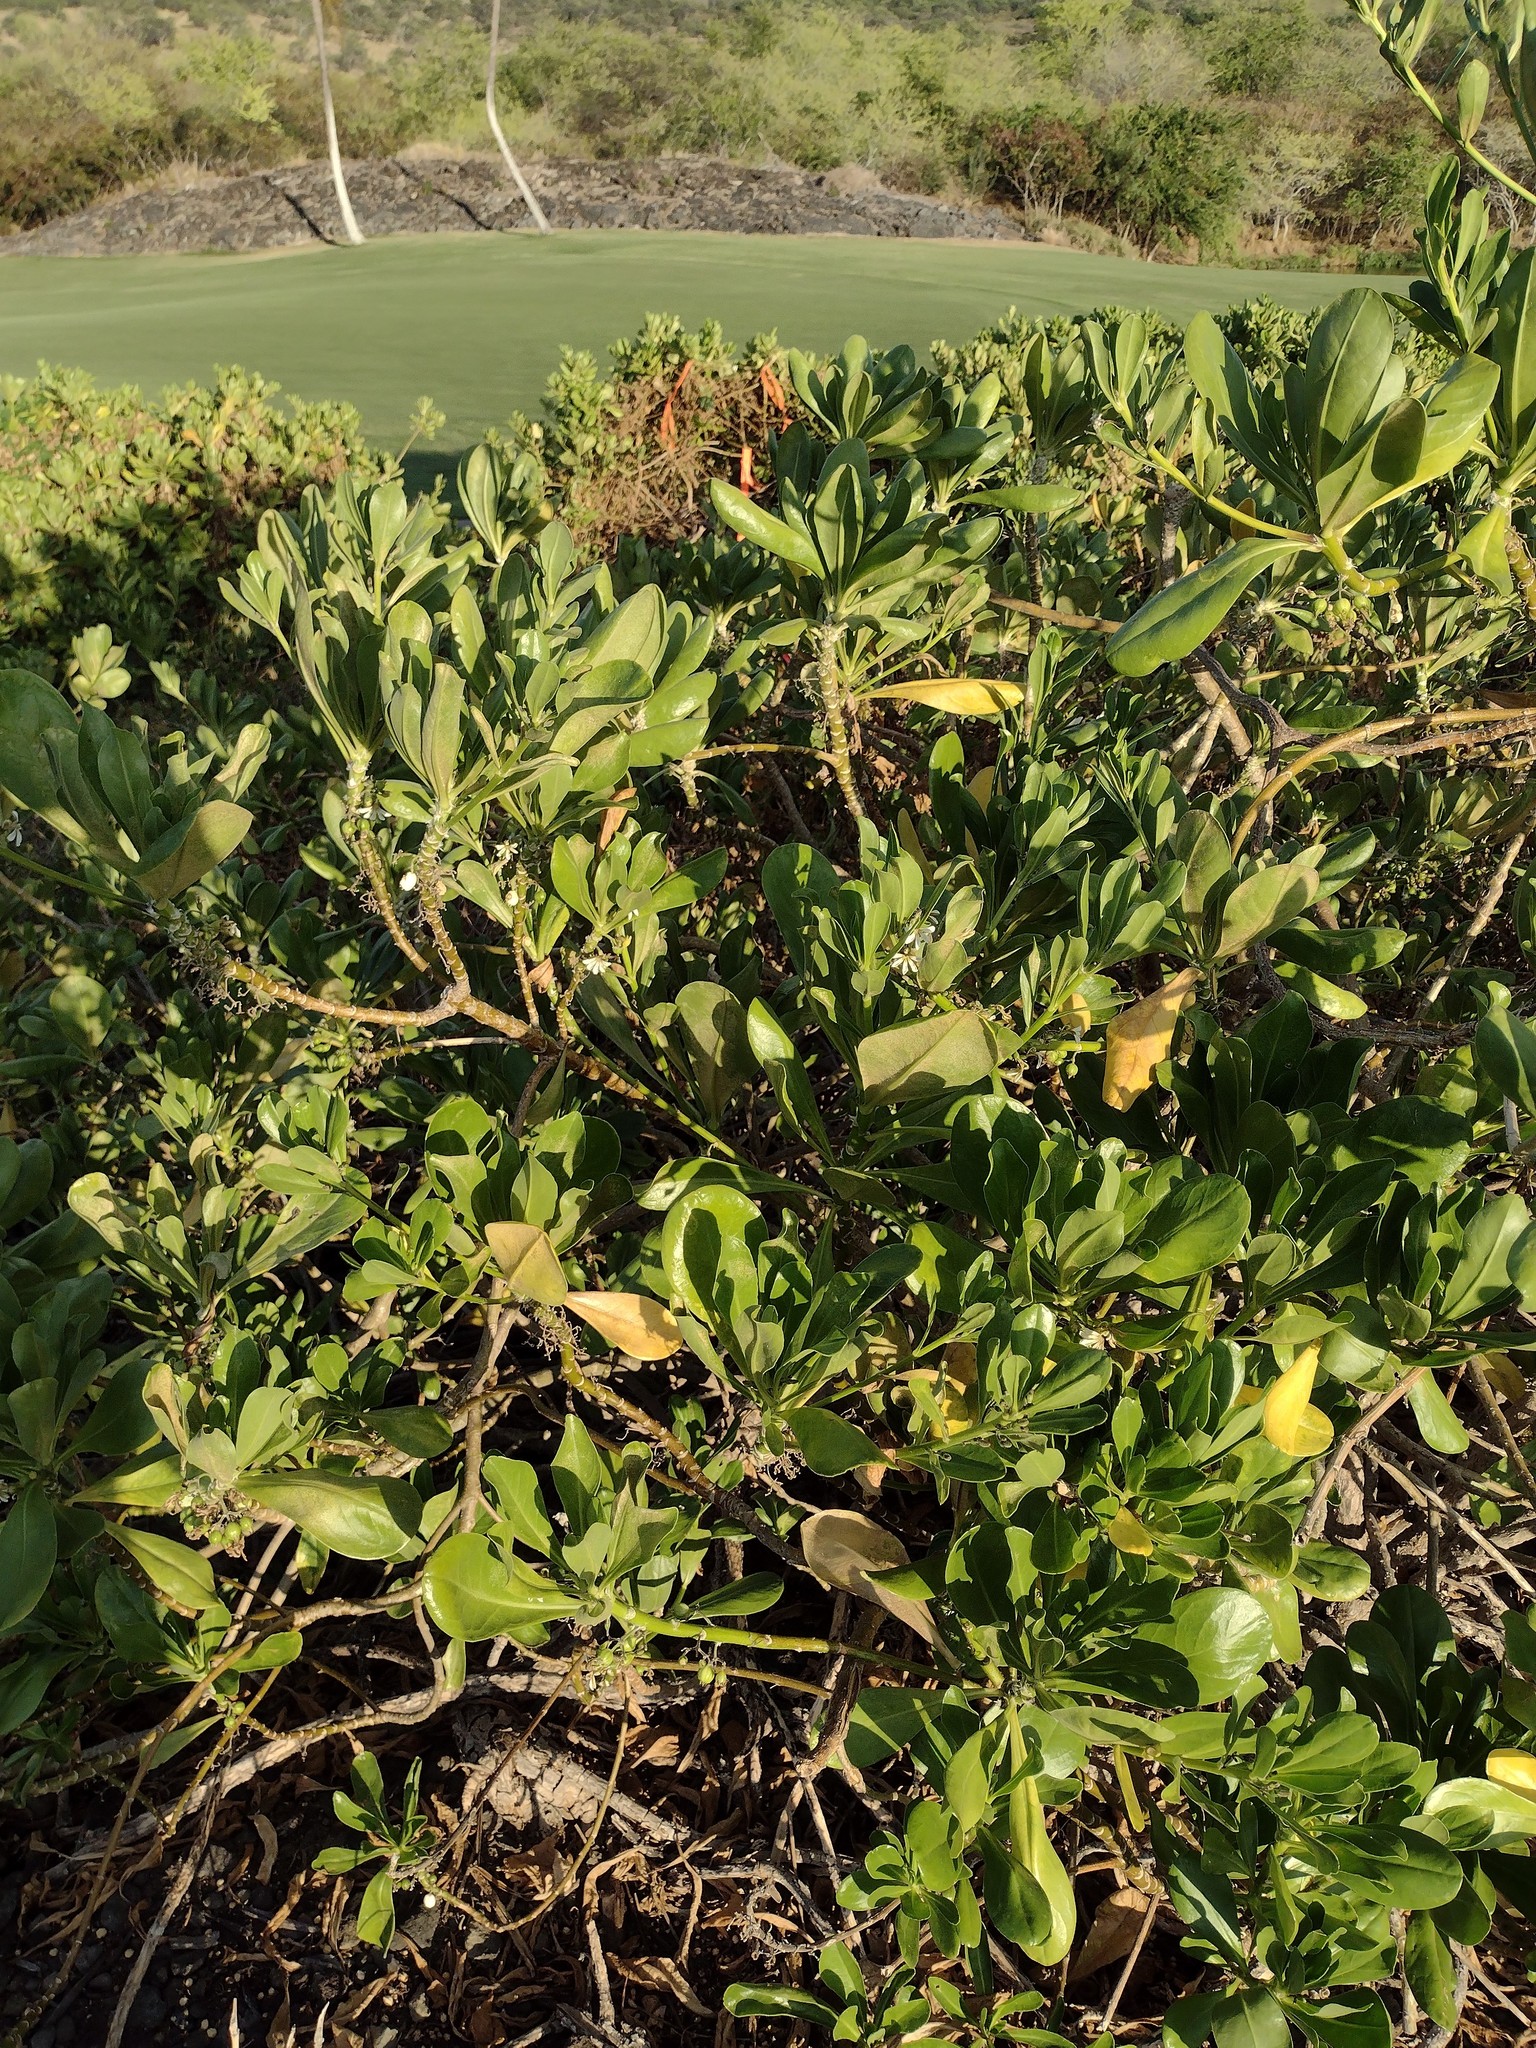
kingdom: Plantae
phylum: Tracheophyta
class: Magnoliopsida
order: Asterales
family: Goodeniaceae
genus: Scaevola
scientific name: Scaevola taccada
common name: Sea lettucetree
